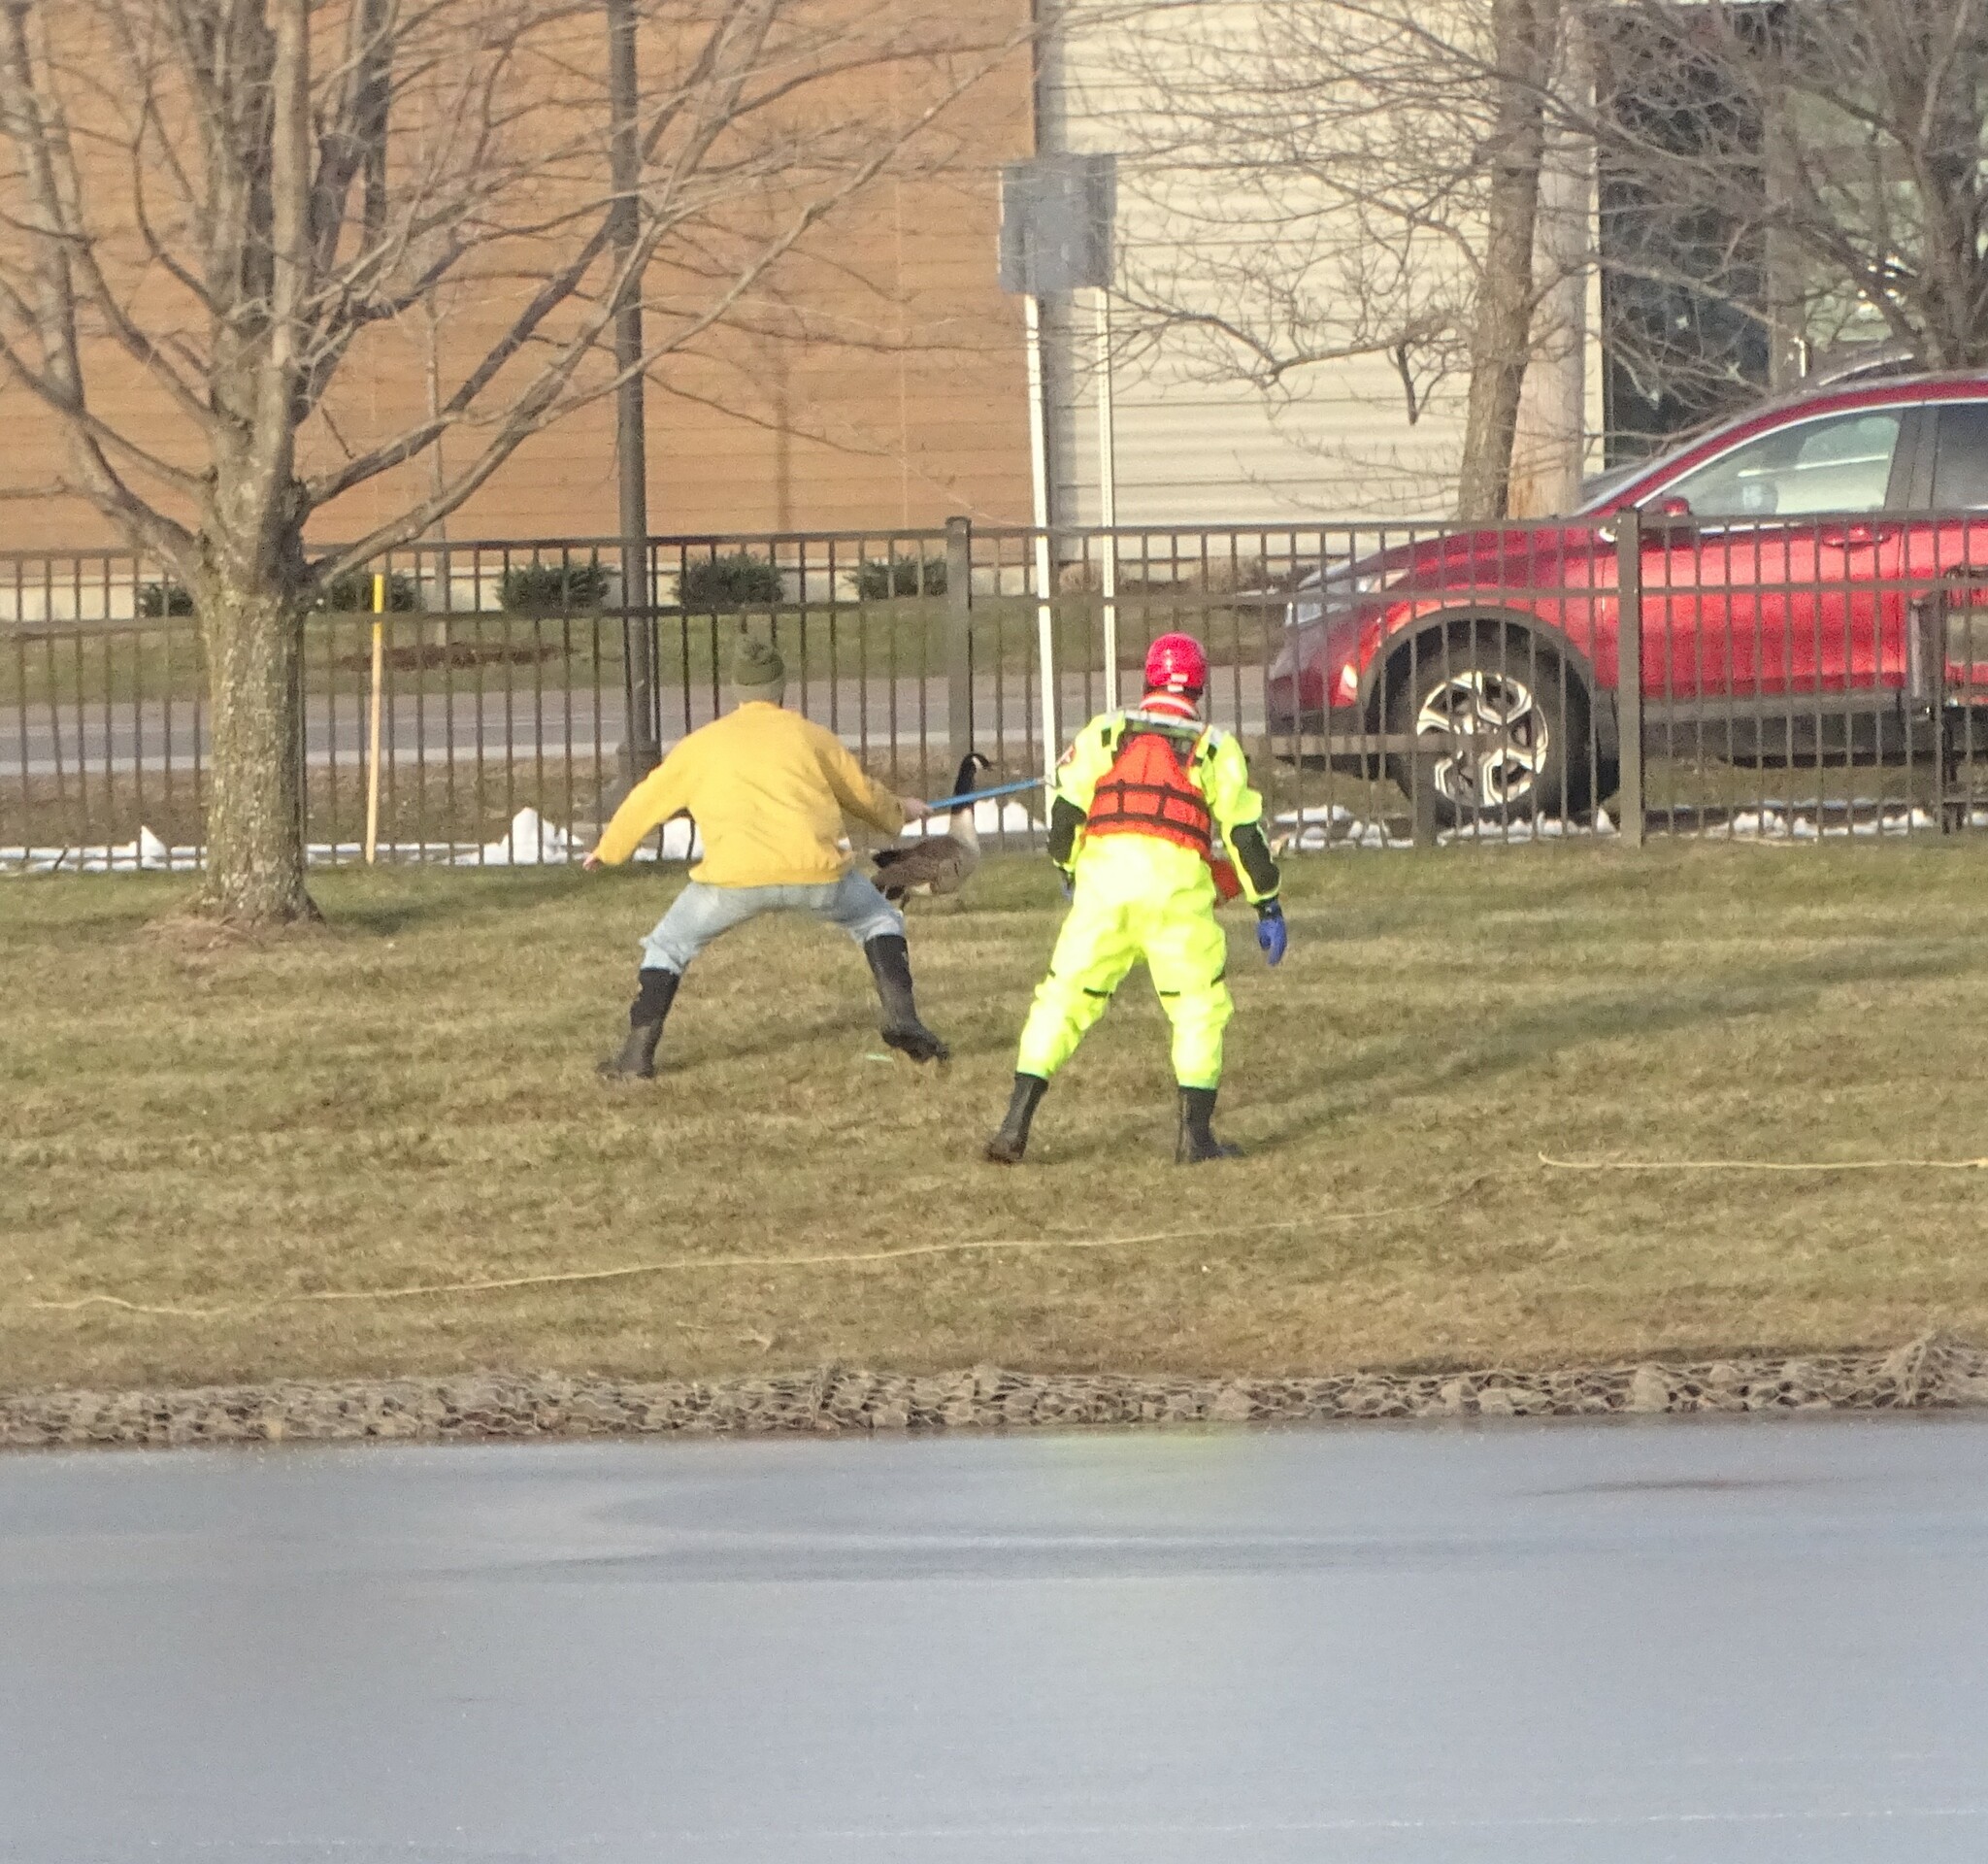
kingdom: Animalia
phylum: Chordata
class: Aves
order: Anseriformes
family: Anatidae
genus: Branta
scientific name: Branta canadensis
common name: Canada goose
